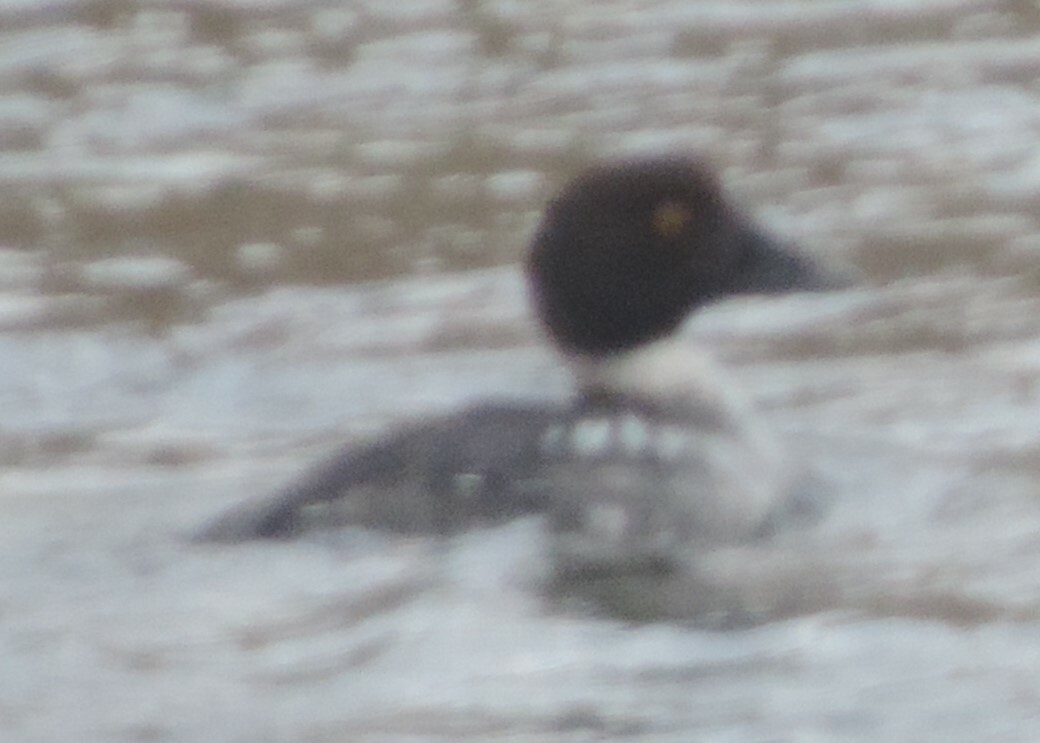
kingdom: Animalia
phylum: Chordata
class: Aves
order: Anseriformes
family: Anatidae
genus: Bucephala
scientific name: Bucephala clangula
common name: Common goldeneye
